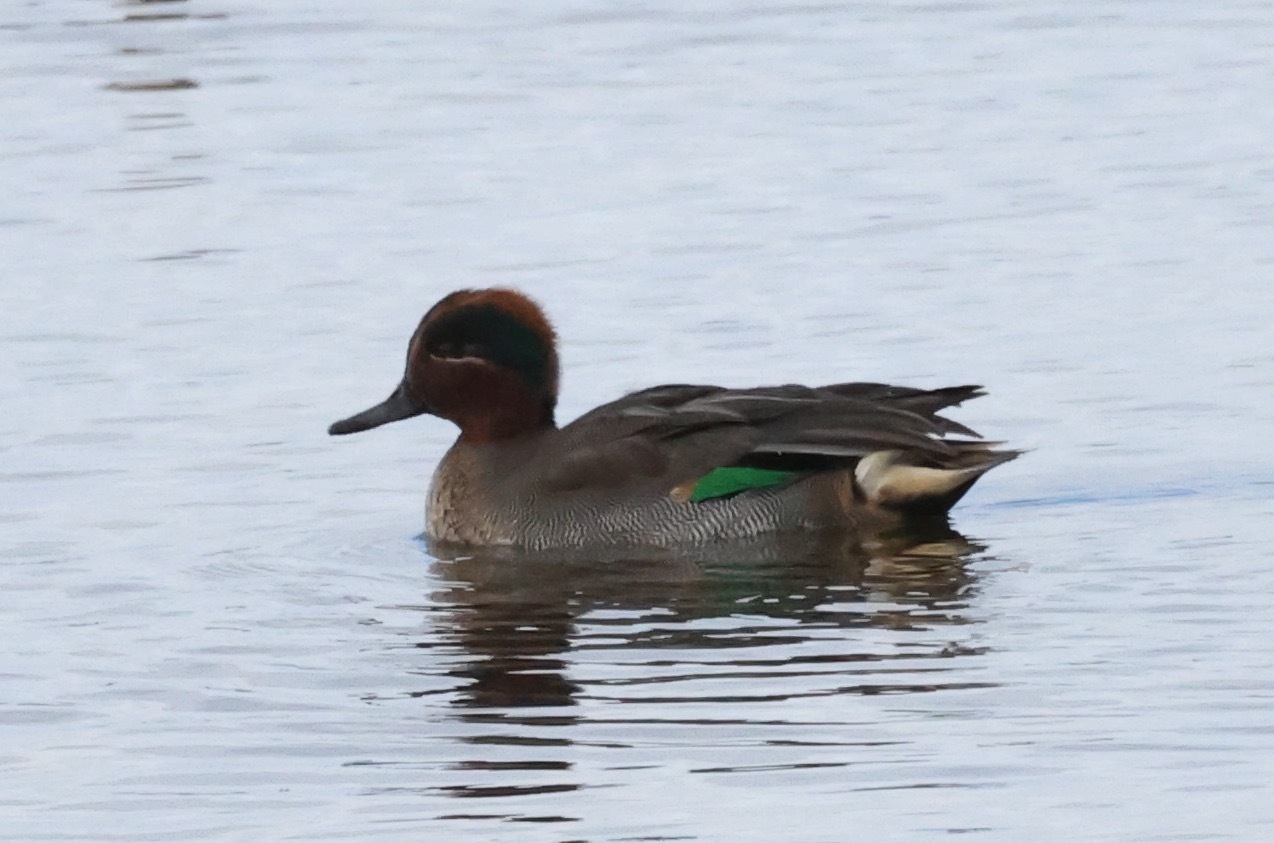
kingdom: Animalia
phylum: Chordata
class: Aves
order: Anseriformes
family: Anatidae
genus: Anas
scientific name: Anas crecca
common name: Eurasian teal
